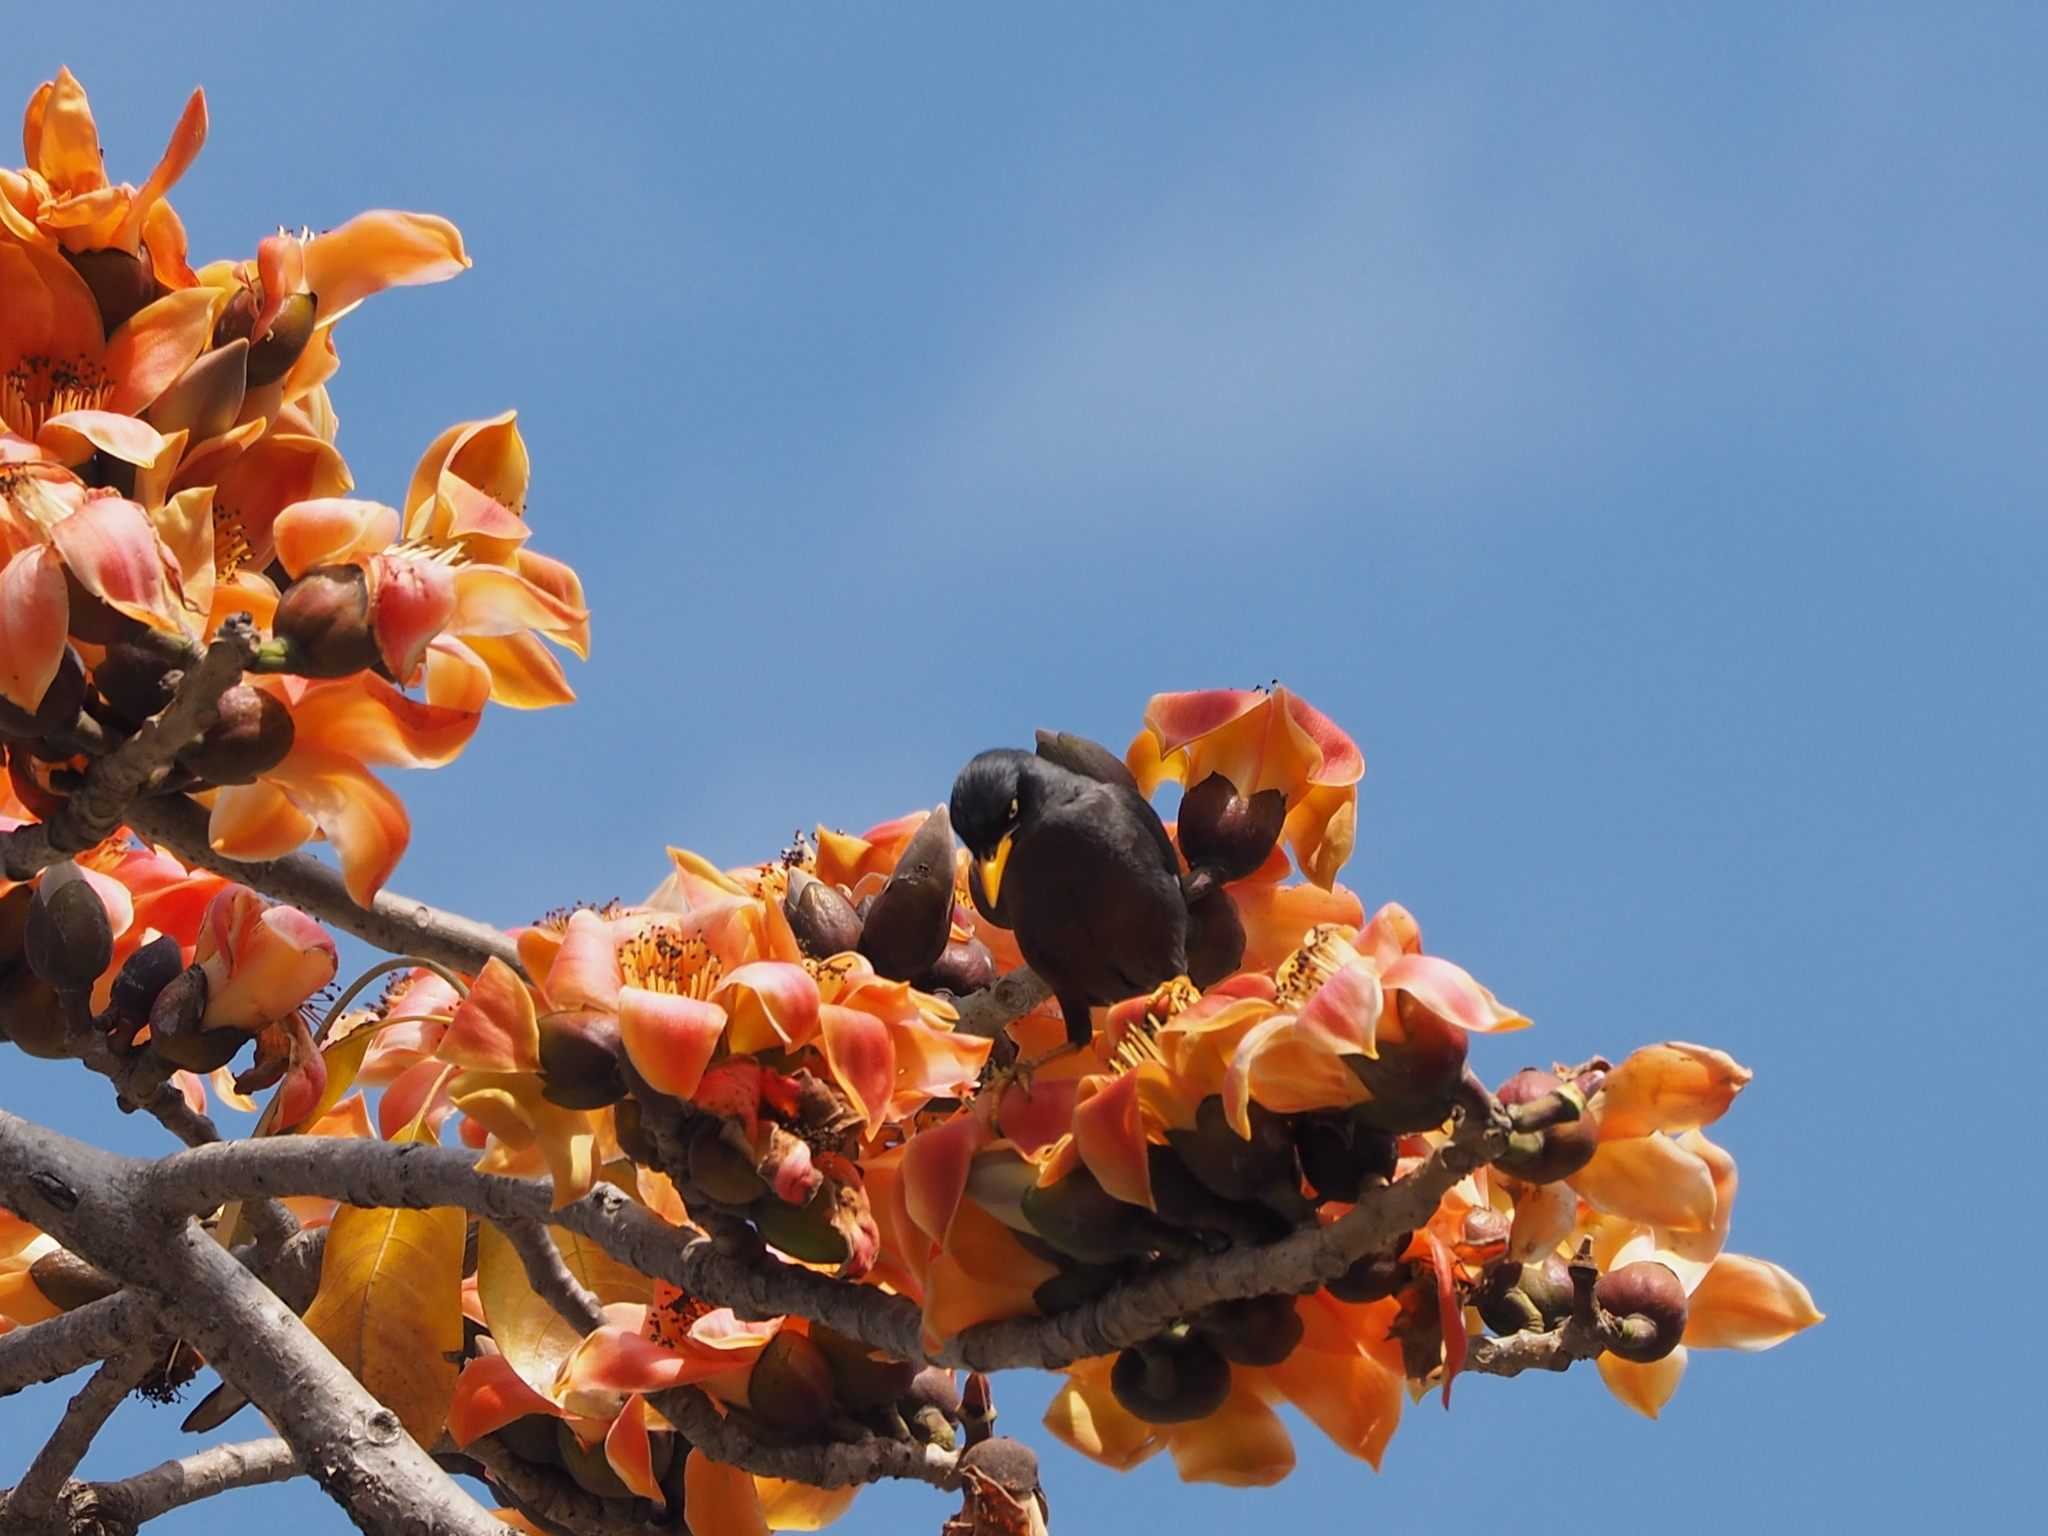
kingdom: Animalia
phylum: Chordata
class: Aves
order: Passeriformes
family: Sturnidae
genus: Acridotheres
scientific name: Acridotheres javanicus
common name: Javan myna
